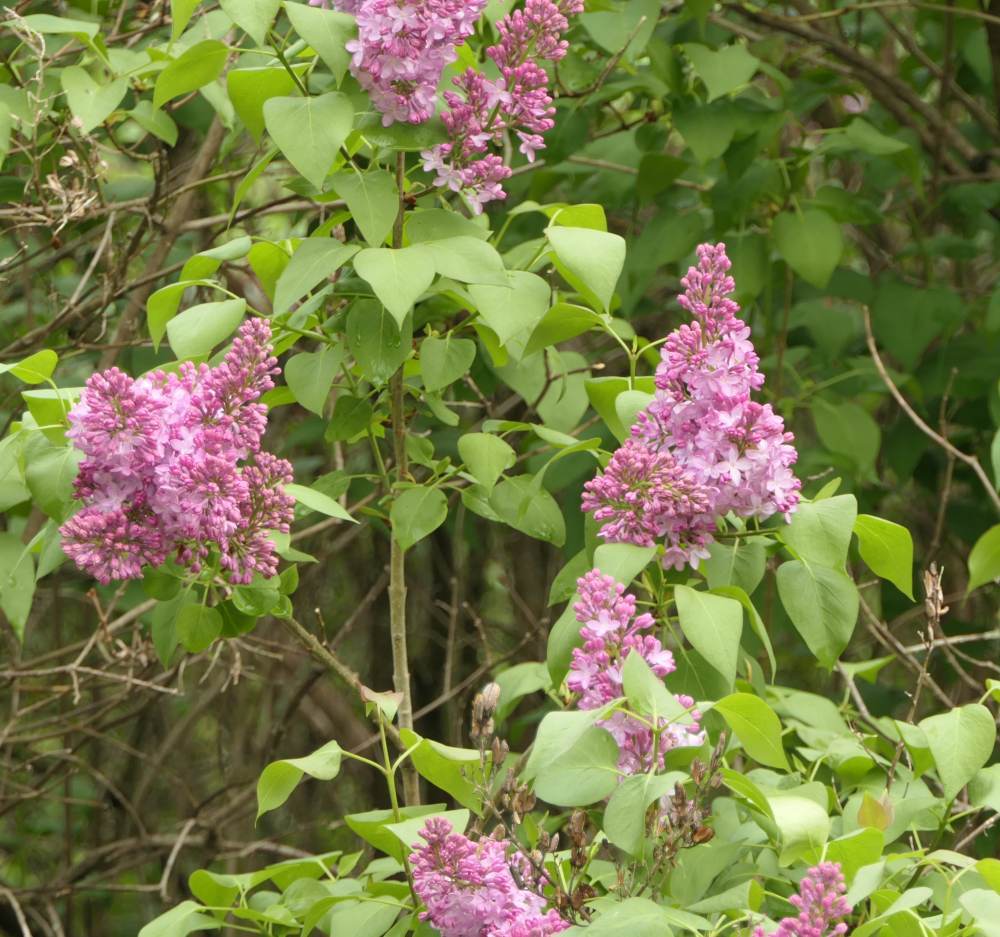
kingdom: Plantae
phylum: Tracheophyta
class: Magnoliopsida
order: Lamiales
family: Oleaceae
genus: Syringa
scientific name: Syringa vulgaris
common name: Common lilac
